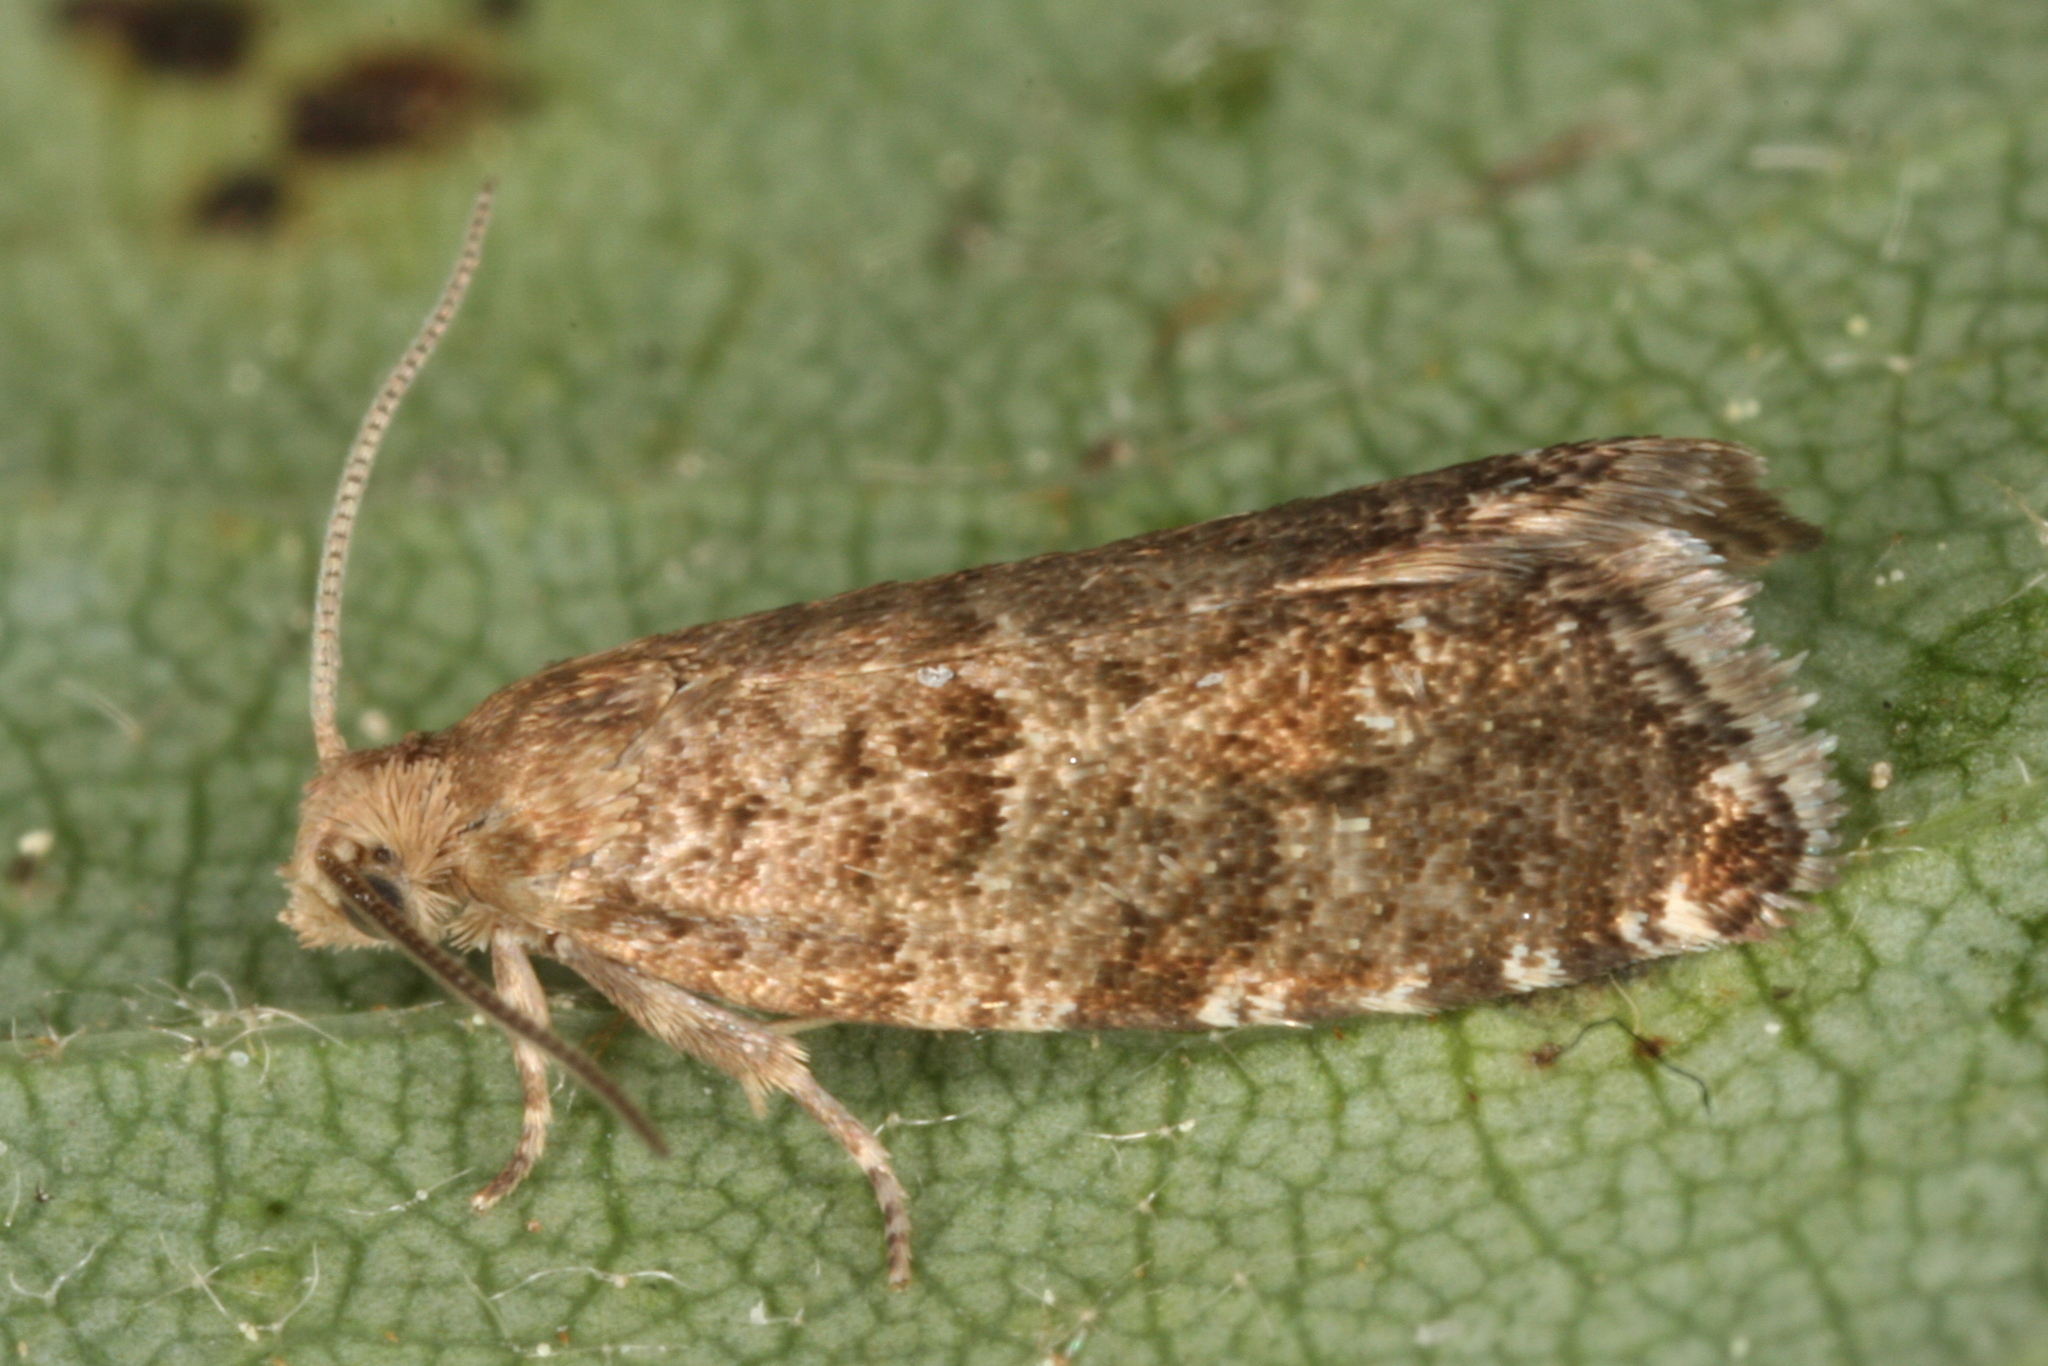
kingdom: Animalia
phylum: Arthropoda
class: Insecta
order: Lepidoptera
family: Tortricidae
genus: Epinotia
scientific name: Epinotia nanana
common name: Leaf roller
